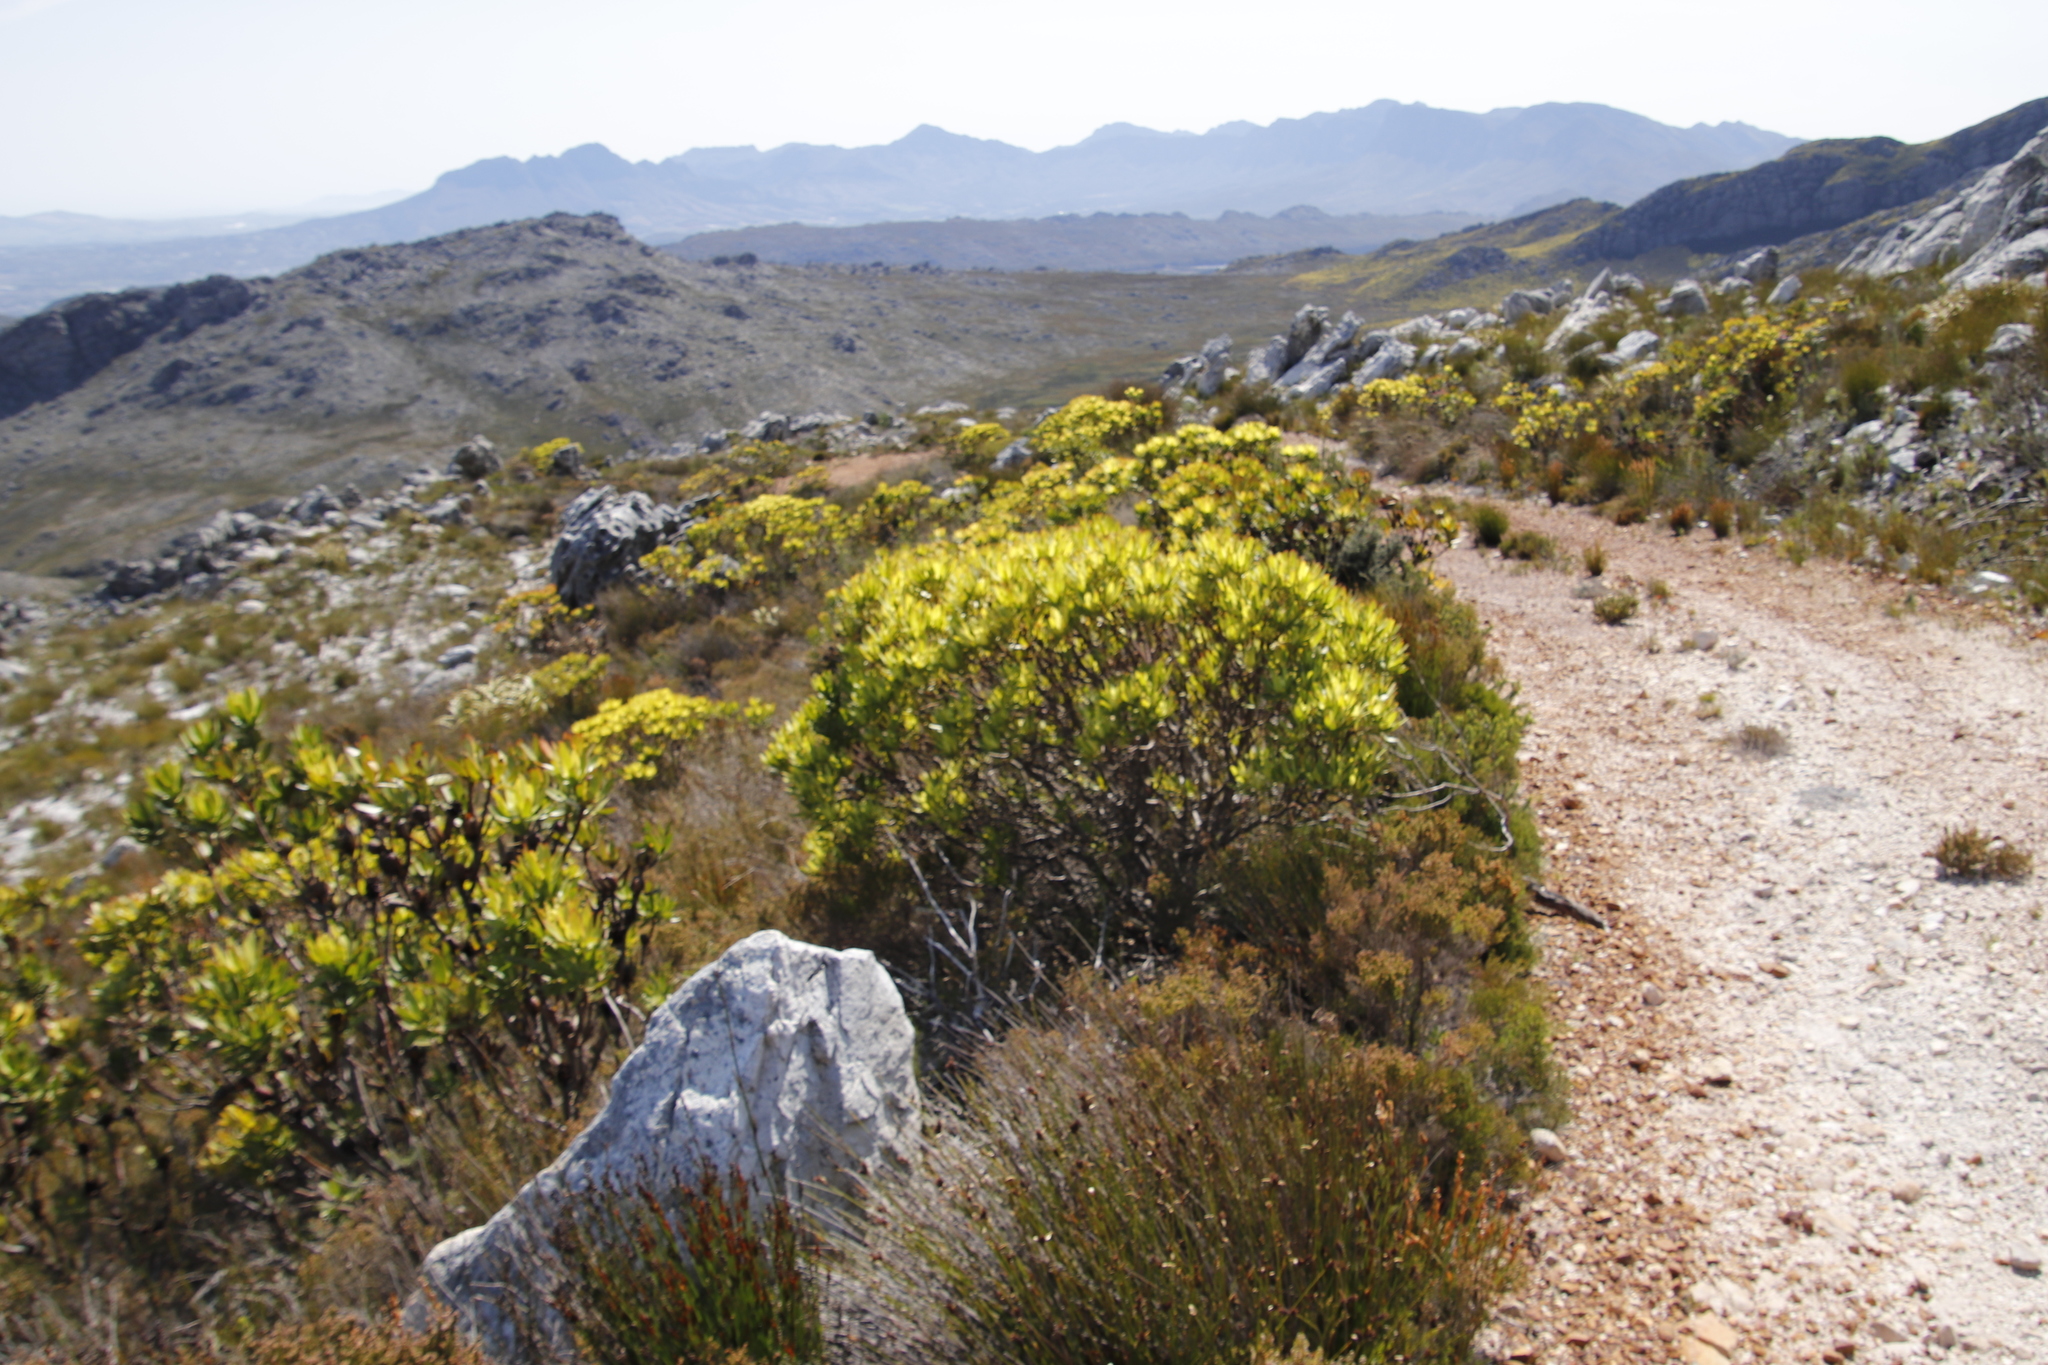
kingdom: Plantae
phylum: Tracheophyta
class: Magnoliopsida
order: Proteales
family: Proteaceae
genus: Leucadendron
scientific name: Leucadendron microcephalum
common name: Oilbract conebush
